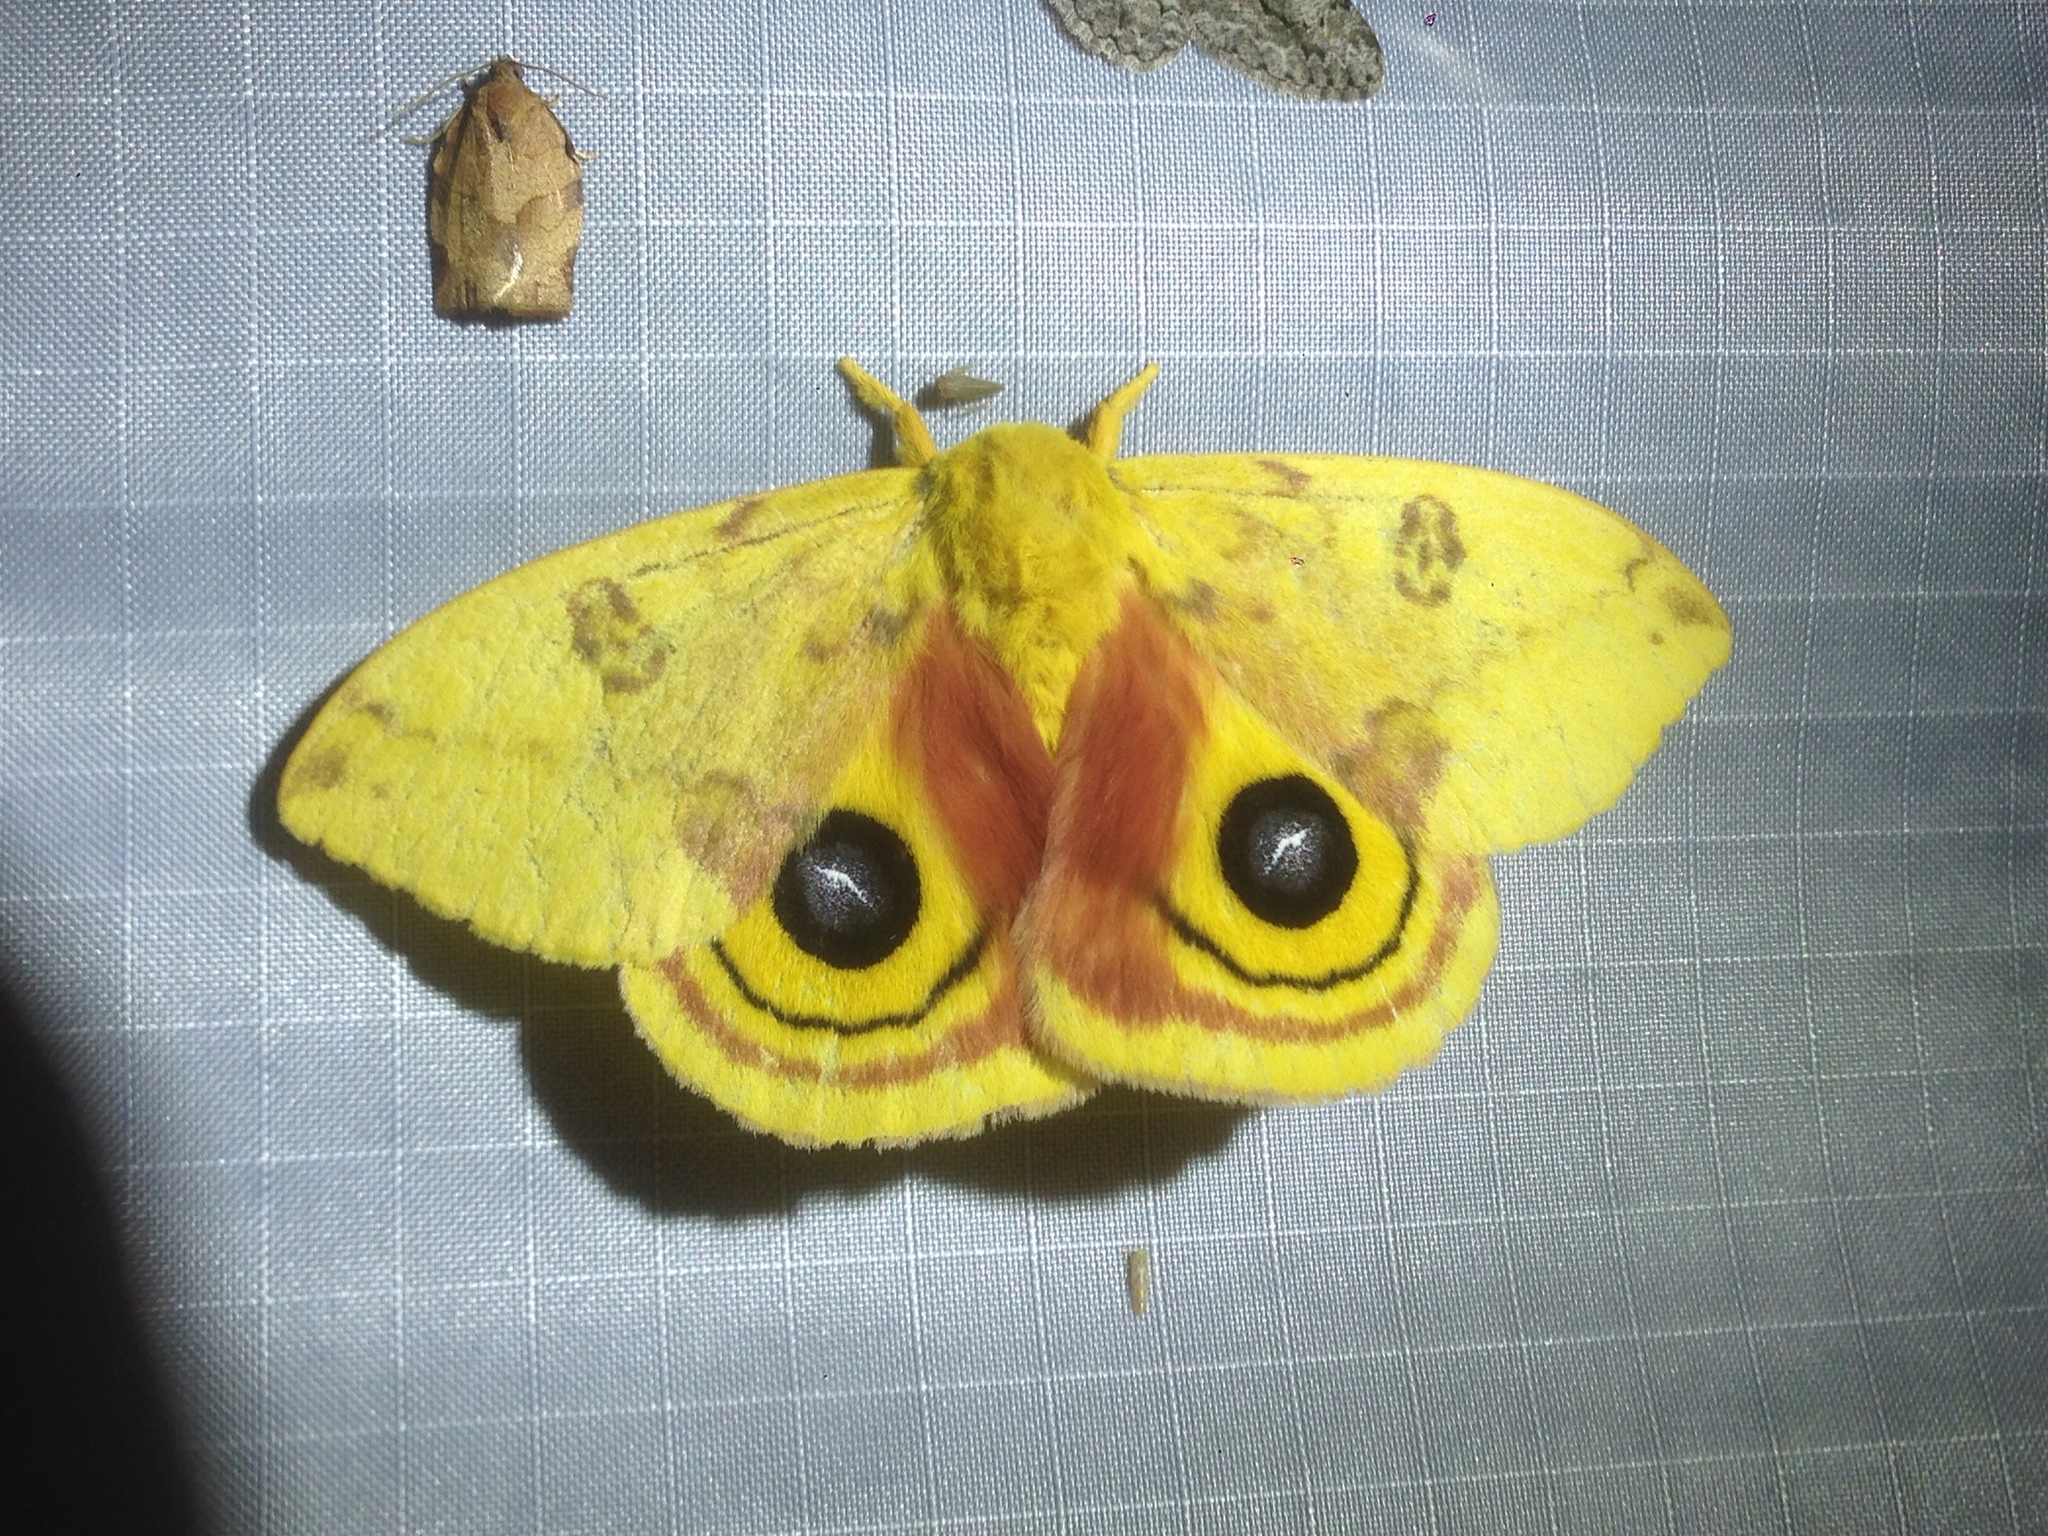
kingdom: Animalia
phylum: Arthropoda
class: Insecta
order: Lepidoptera
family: Saturniidae
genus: Automeris
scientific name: Automeris io
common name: Io moth
